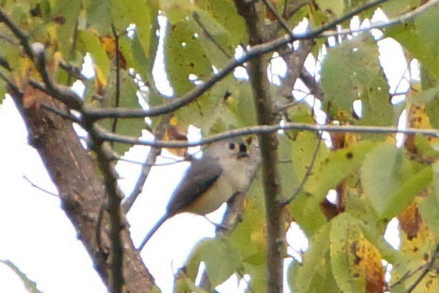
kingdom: Animalia
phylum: Chordata
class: Aves
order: Passeriformes
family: Paridae
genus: Baeolophus
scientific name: Baeolophus bicolor
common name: Tufted titmouse
